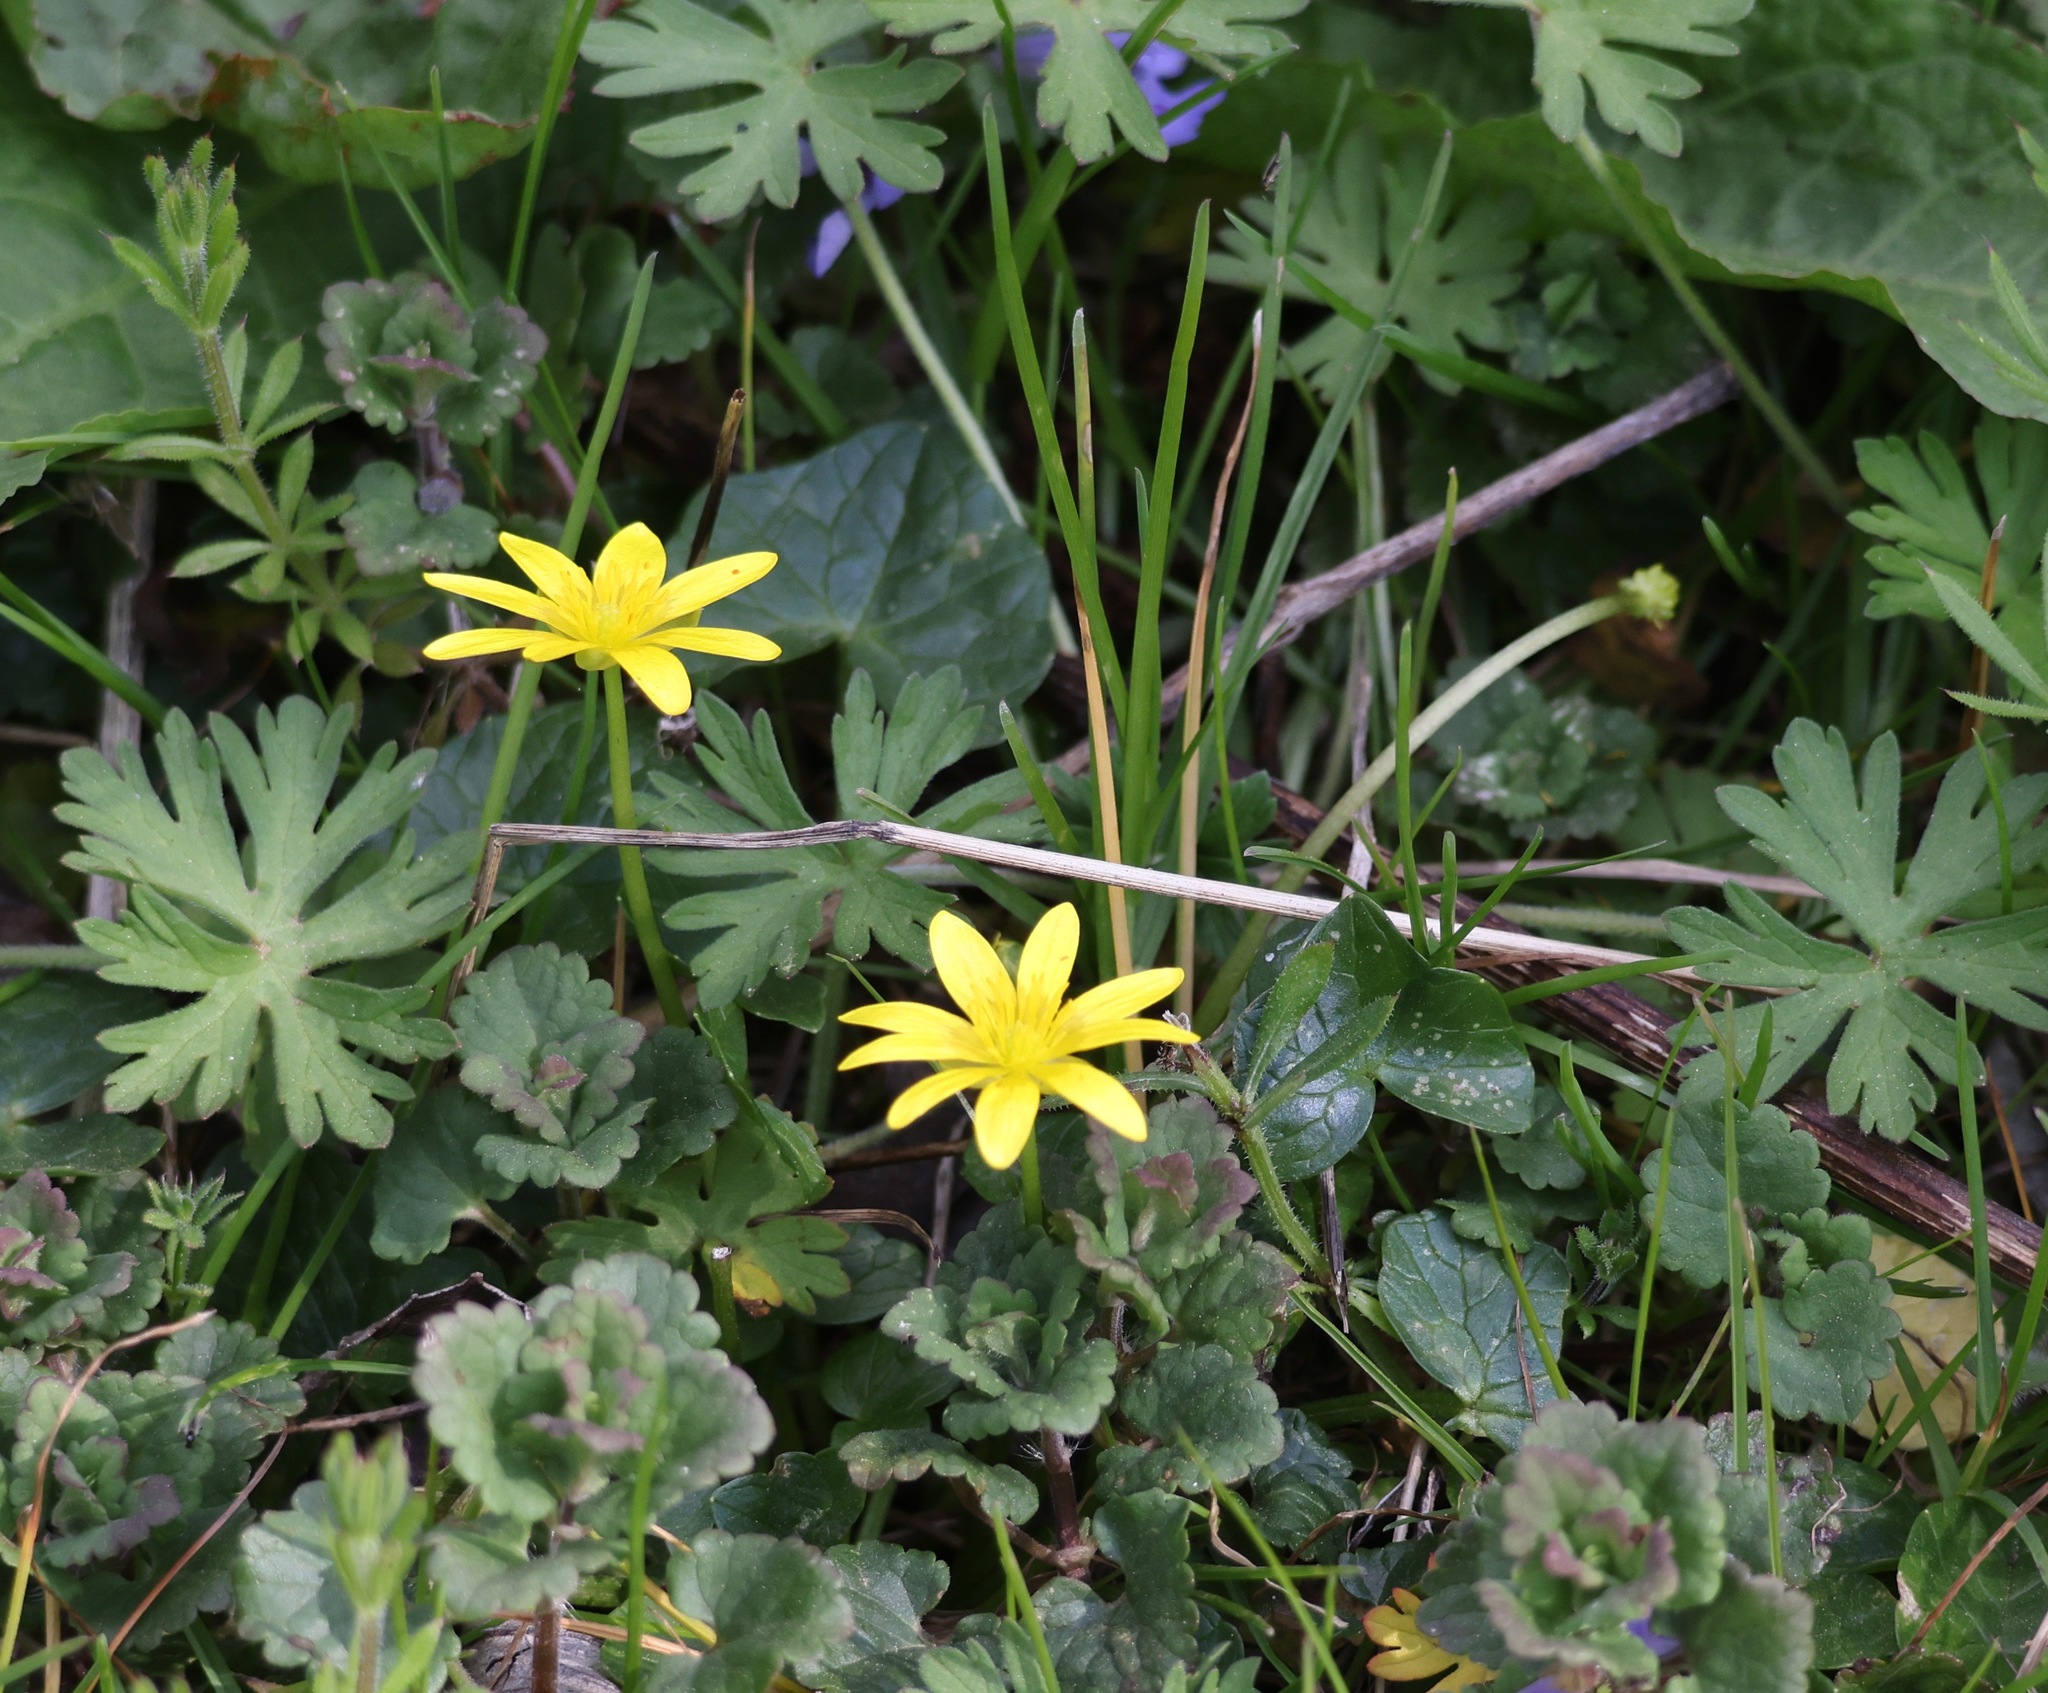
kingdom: Plantae
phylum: Tracheophyta
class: Magnoliopsida
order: Ranunculales
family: Ranunculaceae
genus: Ficaria
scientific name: Ficaria verna
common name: Lesser celandine
